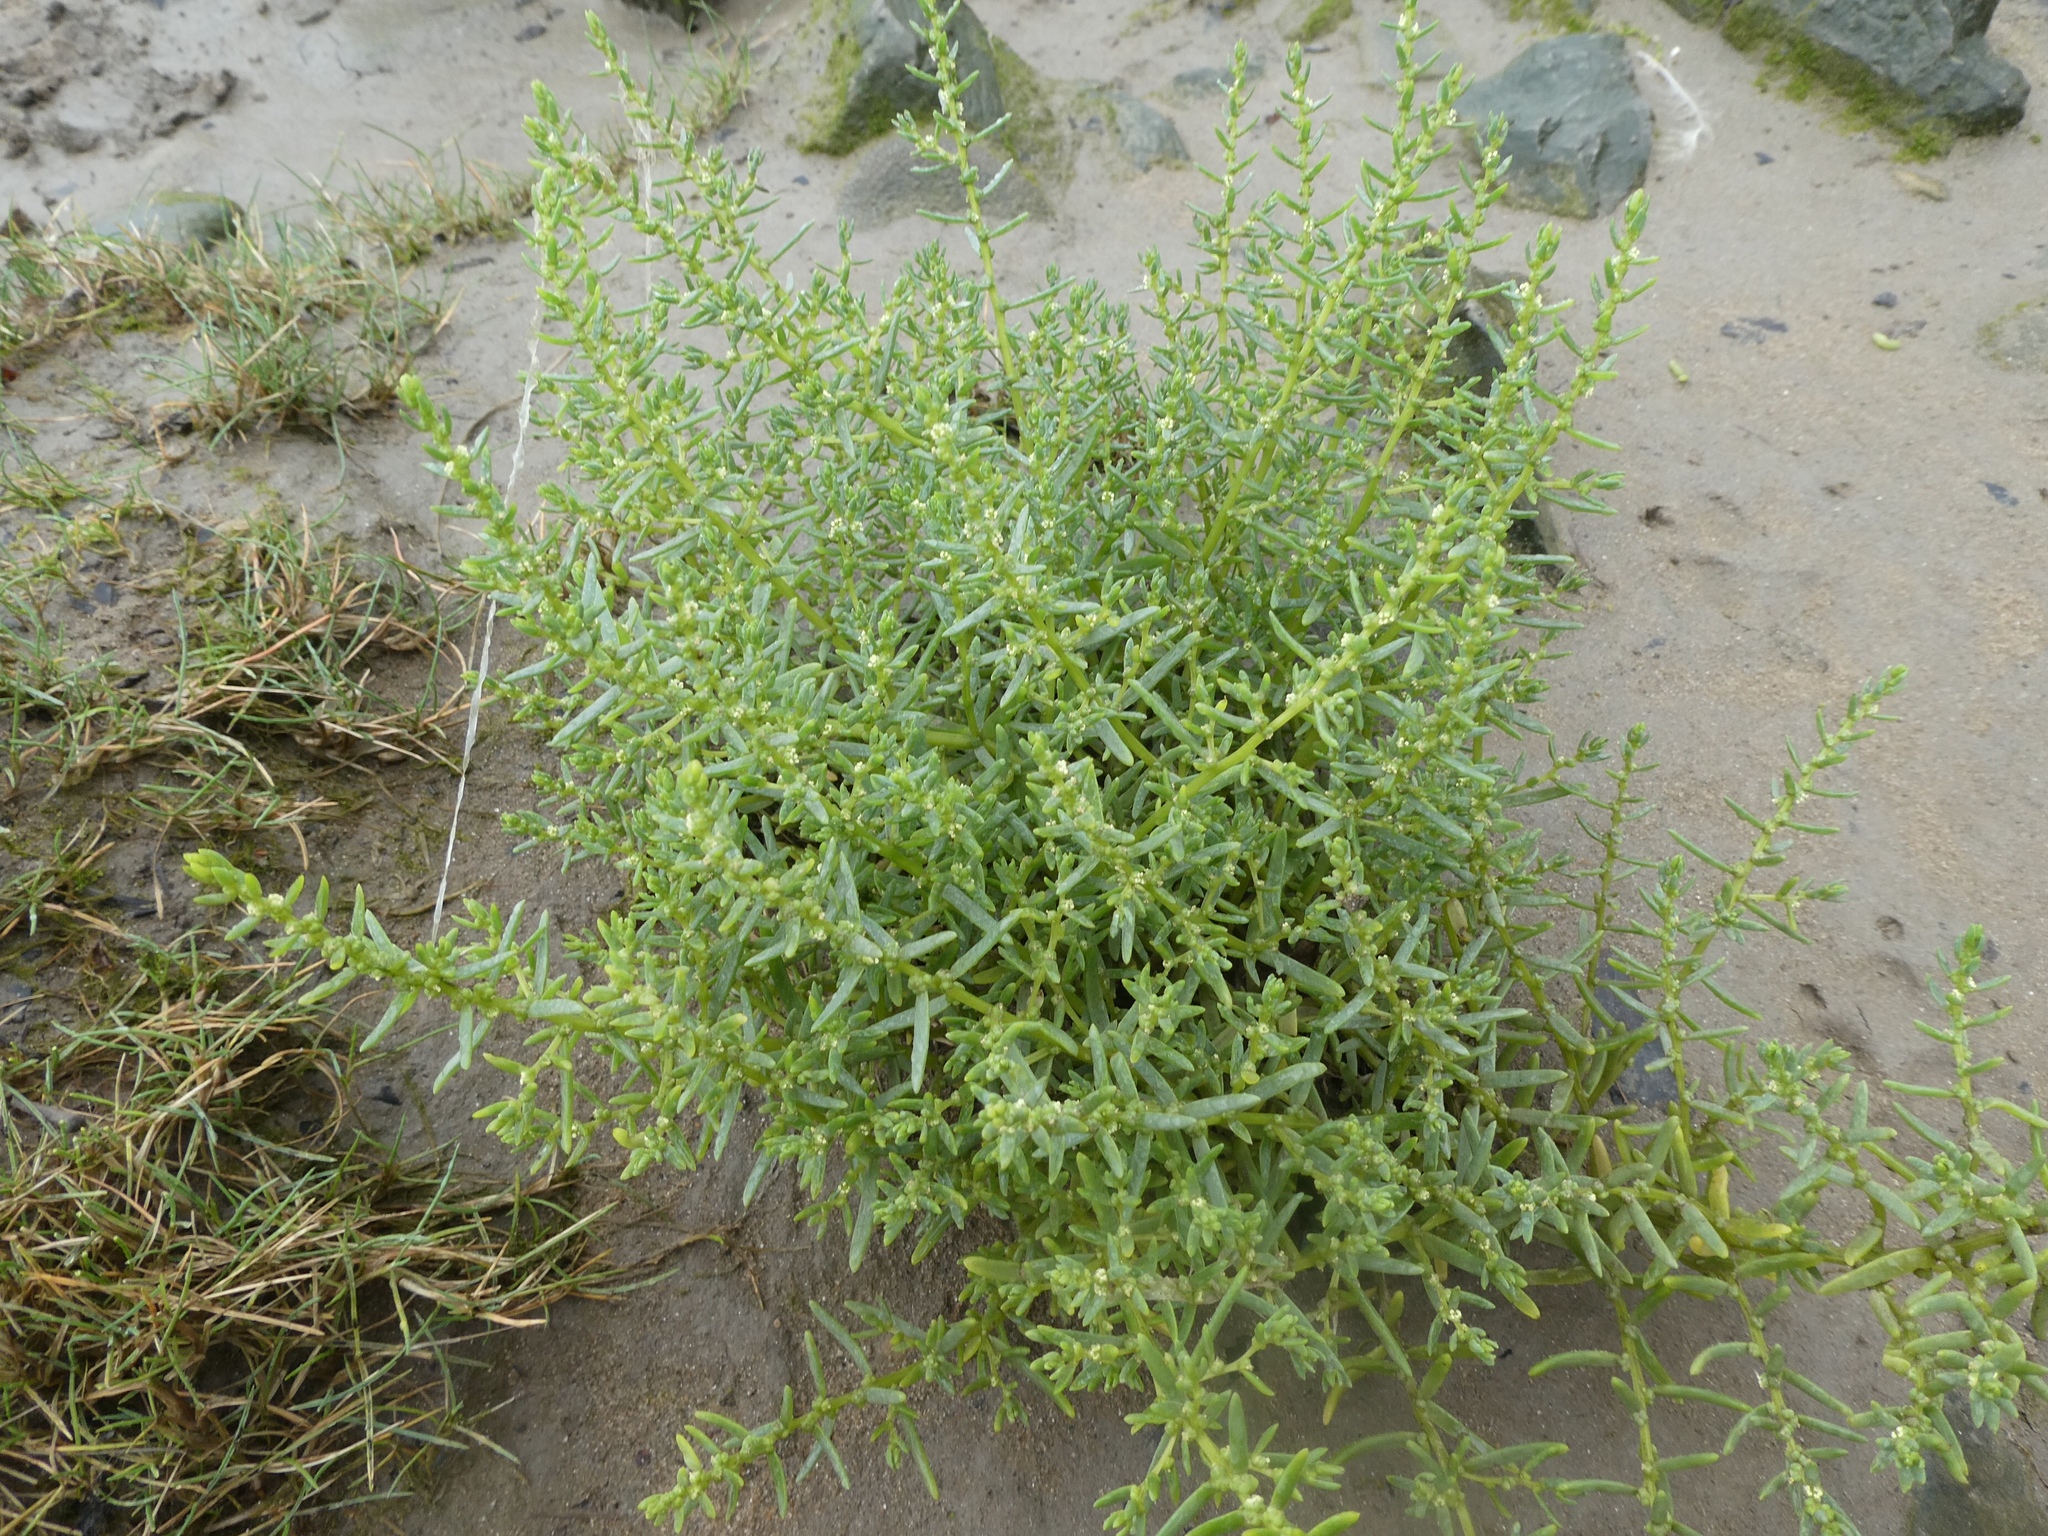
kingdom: Plantae
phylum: Tracheophyta
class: Magnoliopsida
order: Caryophyllales
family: Amaranthaceae
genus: Suaeda
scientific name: Suaeda maritima
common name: Annual sea-blite
